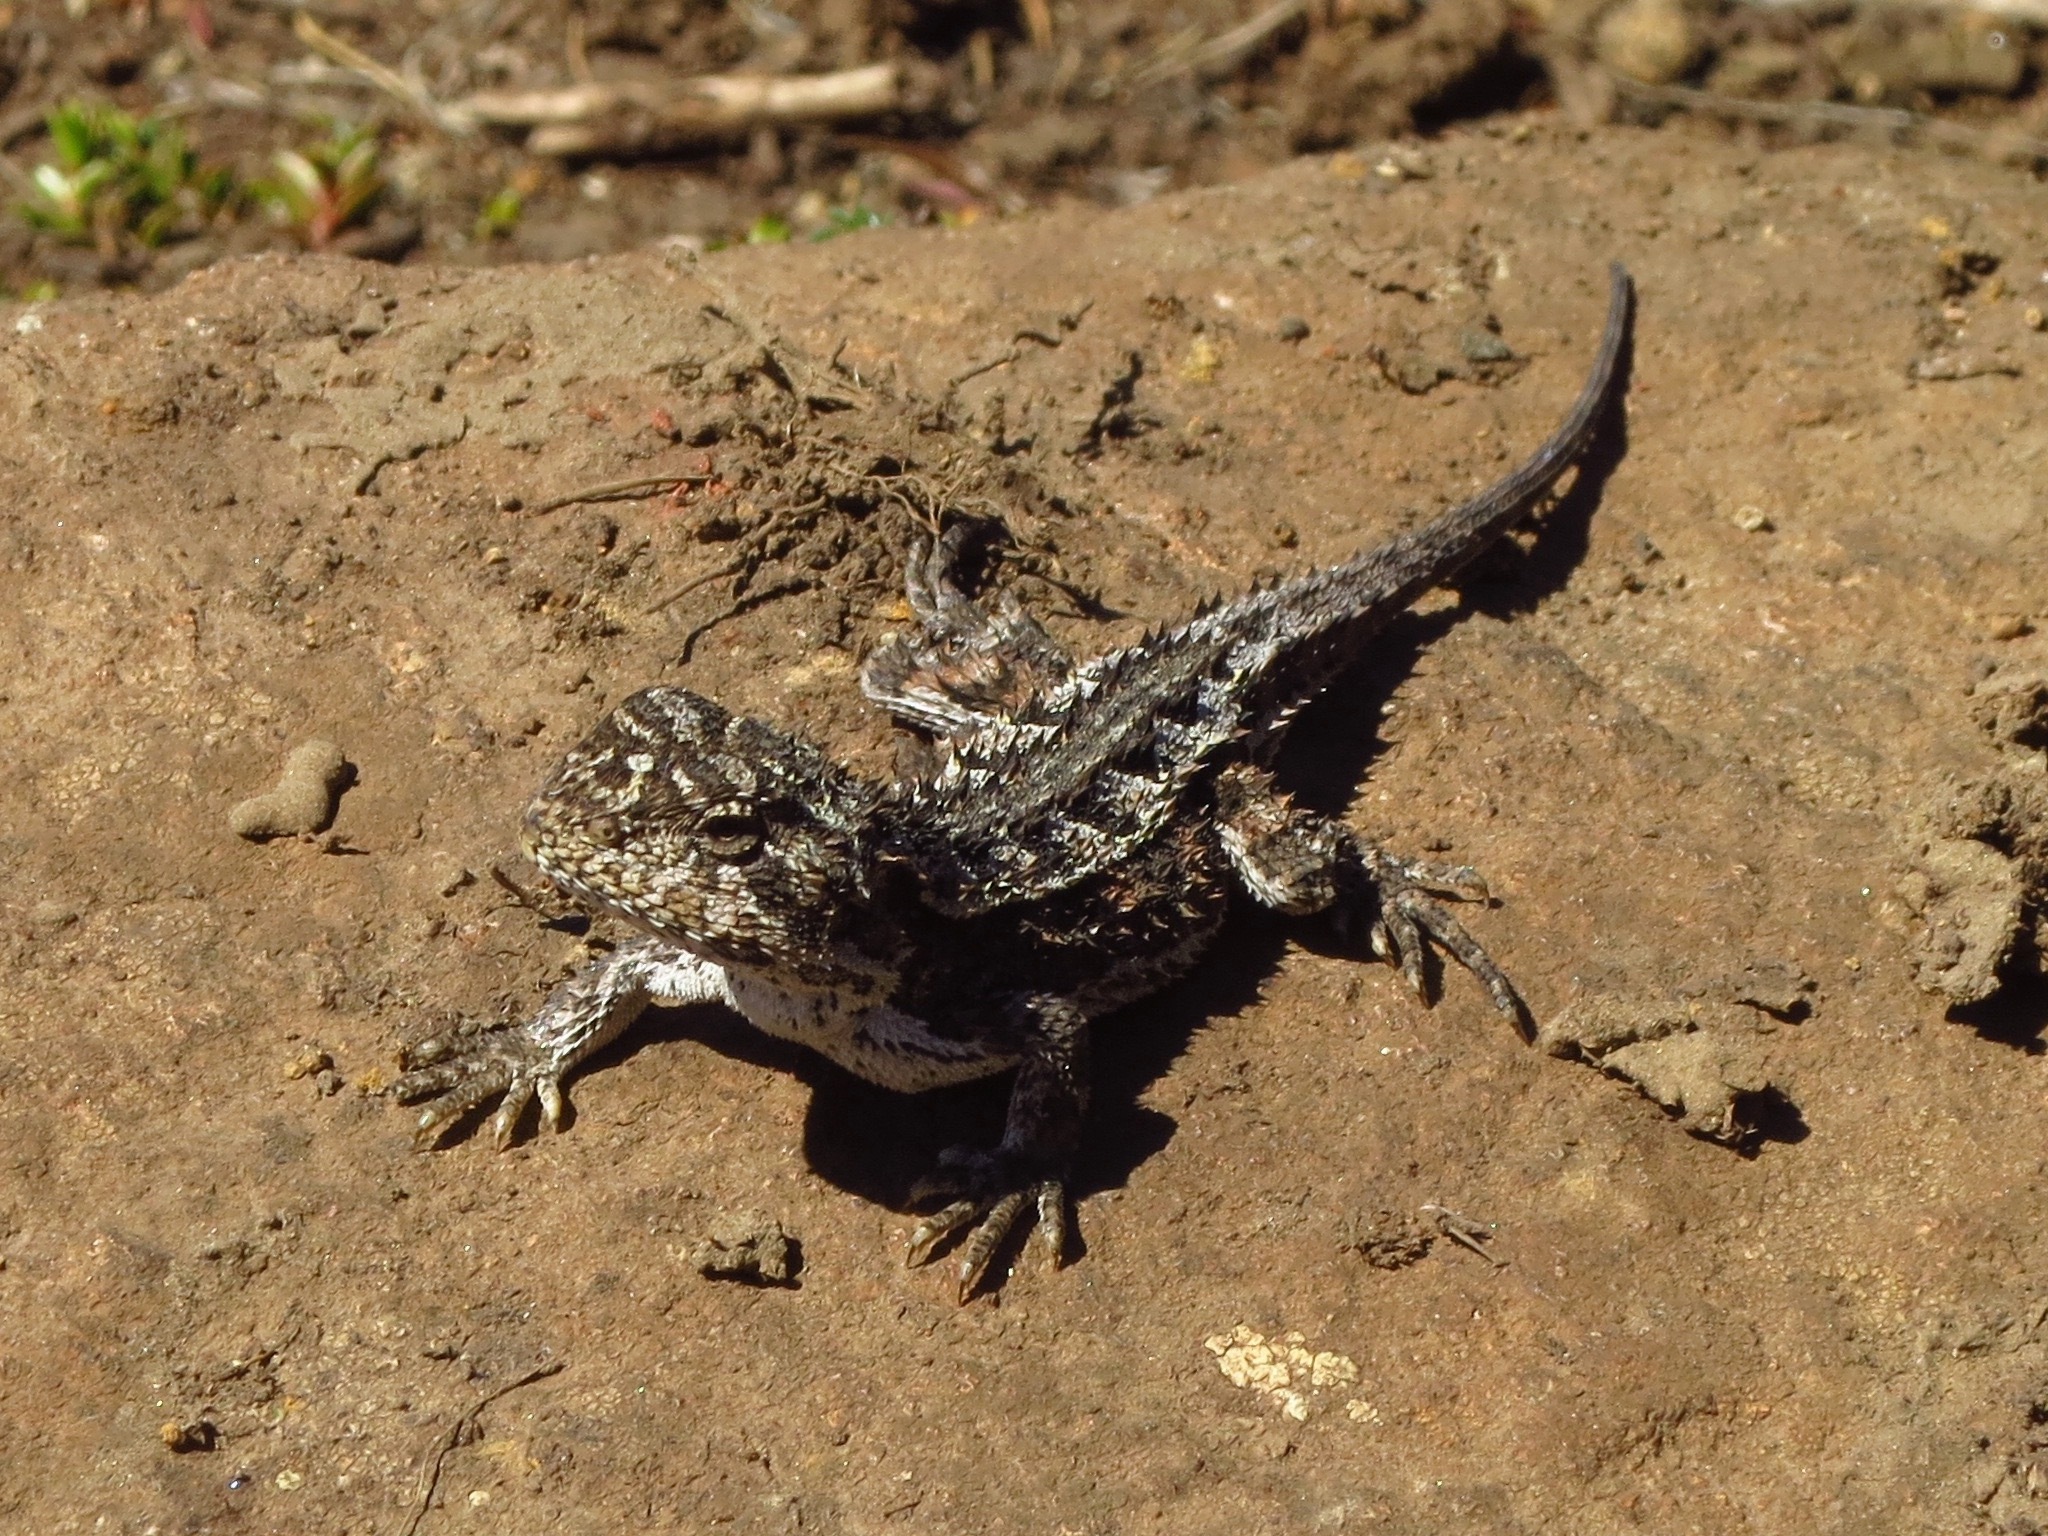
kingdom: Animalia
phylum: Chordata
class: Squamata
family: Agamidae
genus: Rankinia
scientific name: Rankinia diemensis
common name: Mountain dragon
